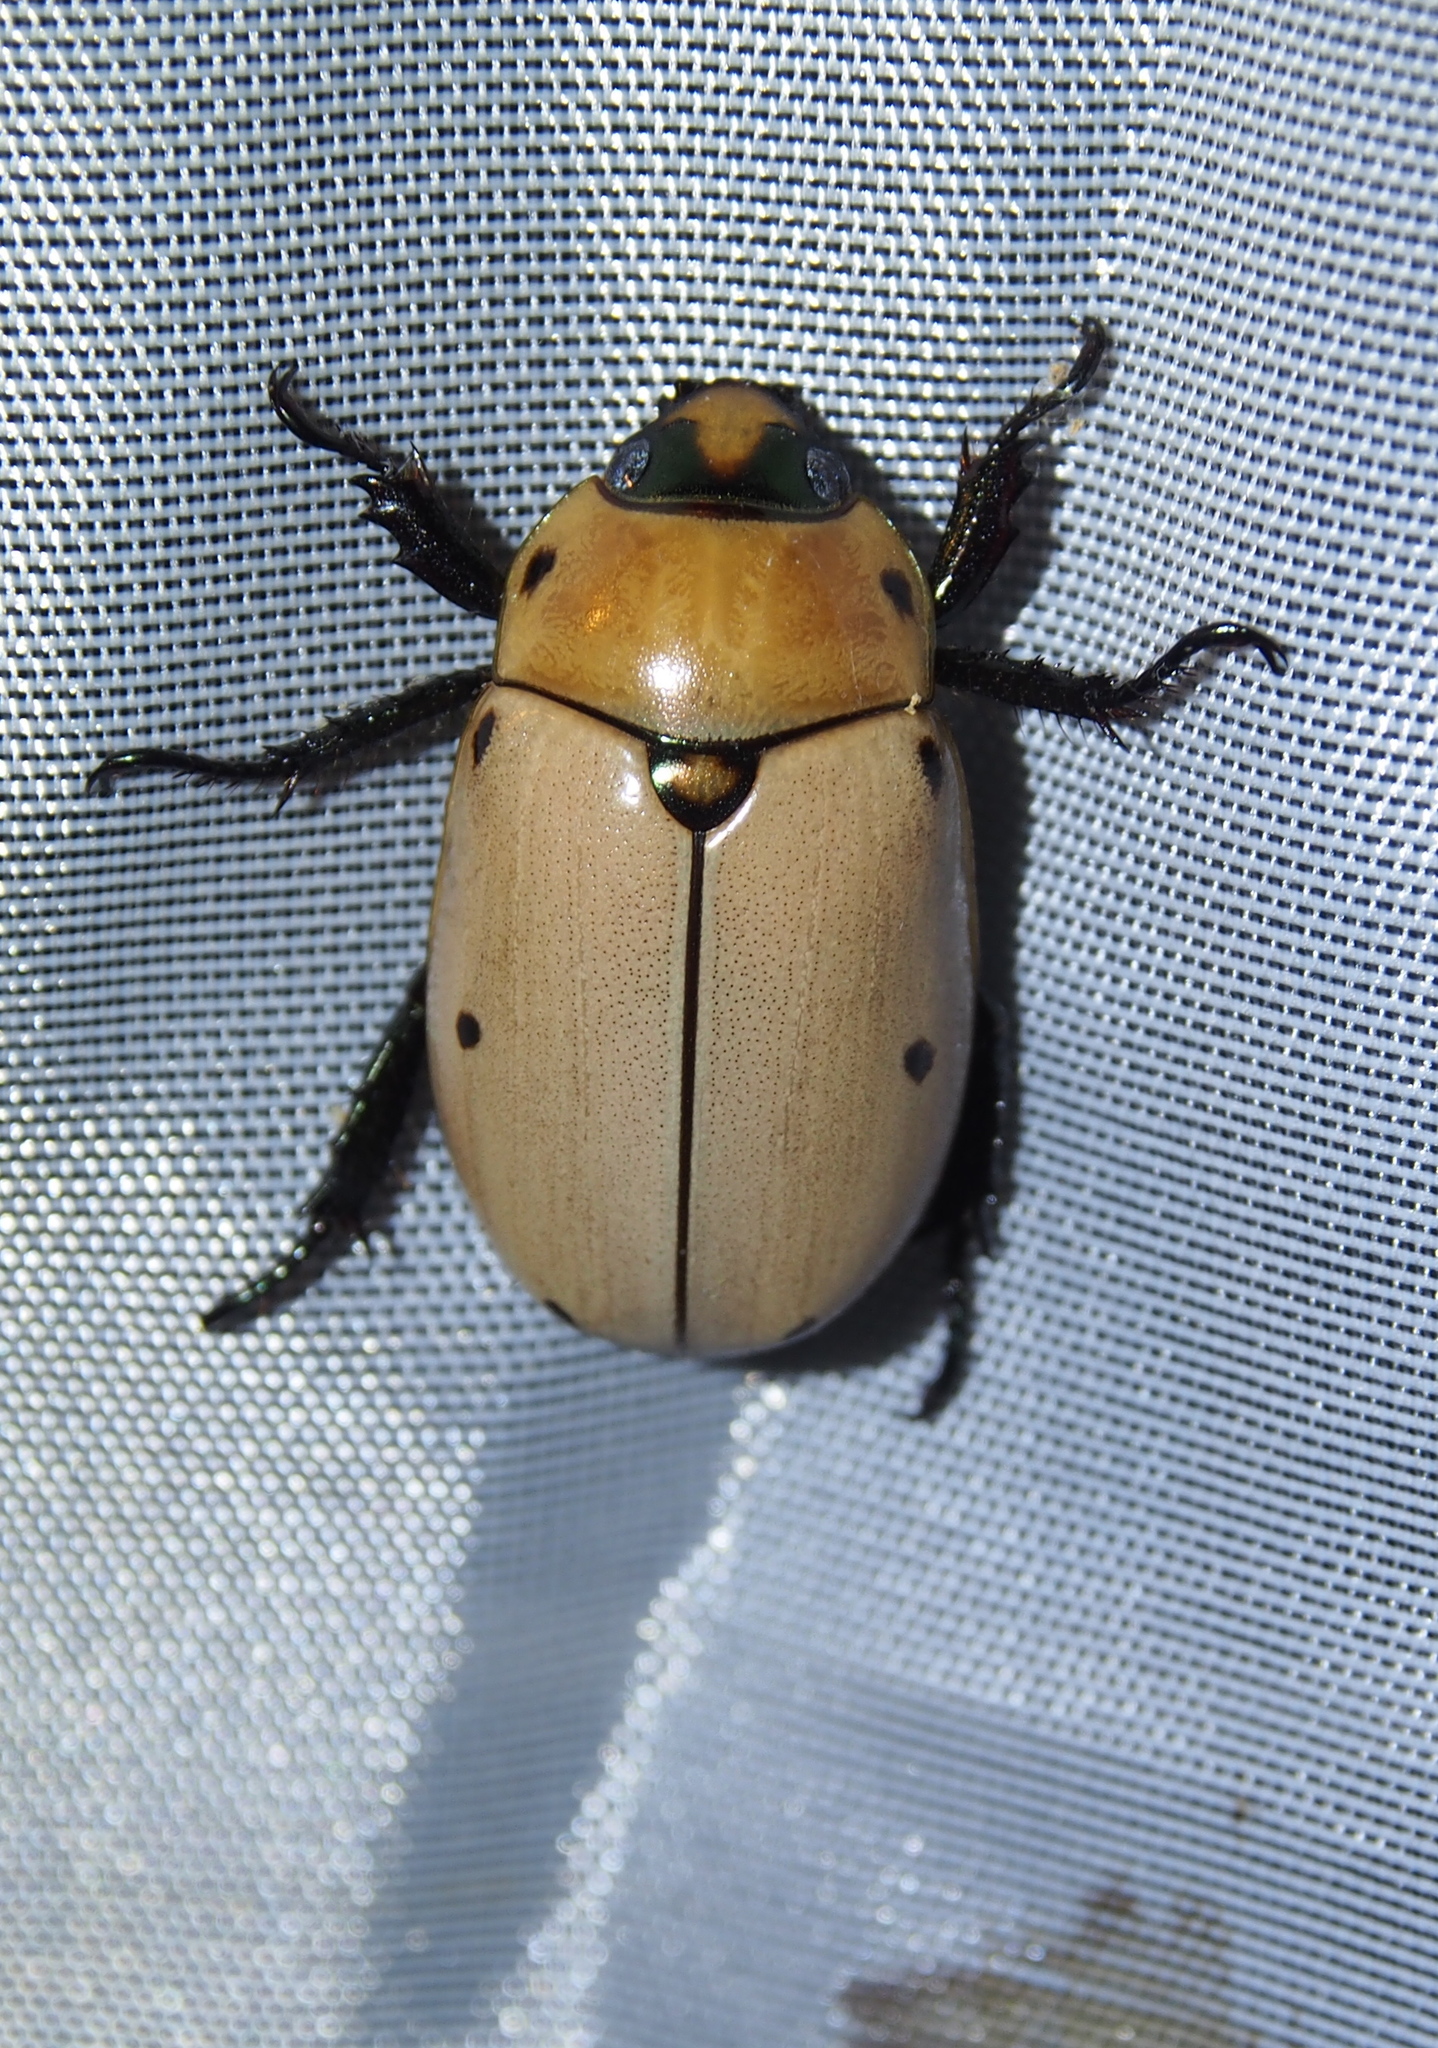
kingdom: Animalia
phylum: Arthropoda
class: Insecta
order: Coleoptera
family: Scarabaeidae
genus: Pelidnota
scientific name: Pelidnota punctata
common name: Grapevine beetle
